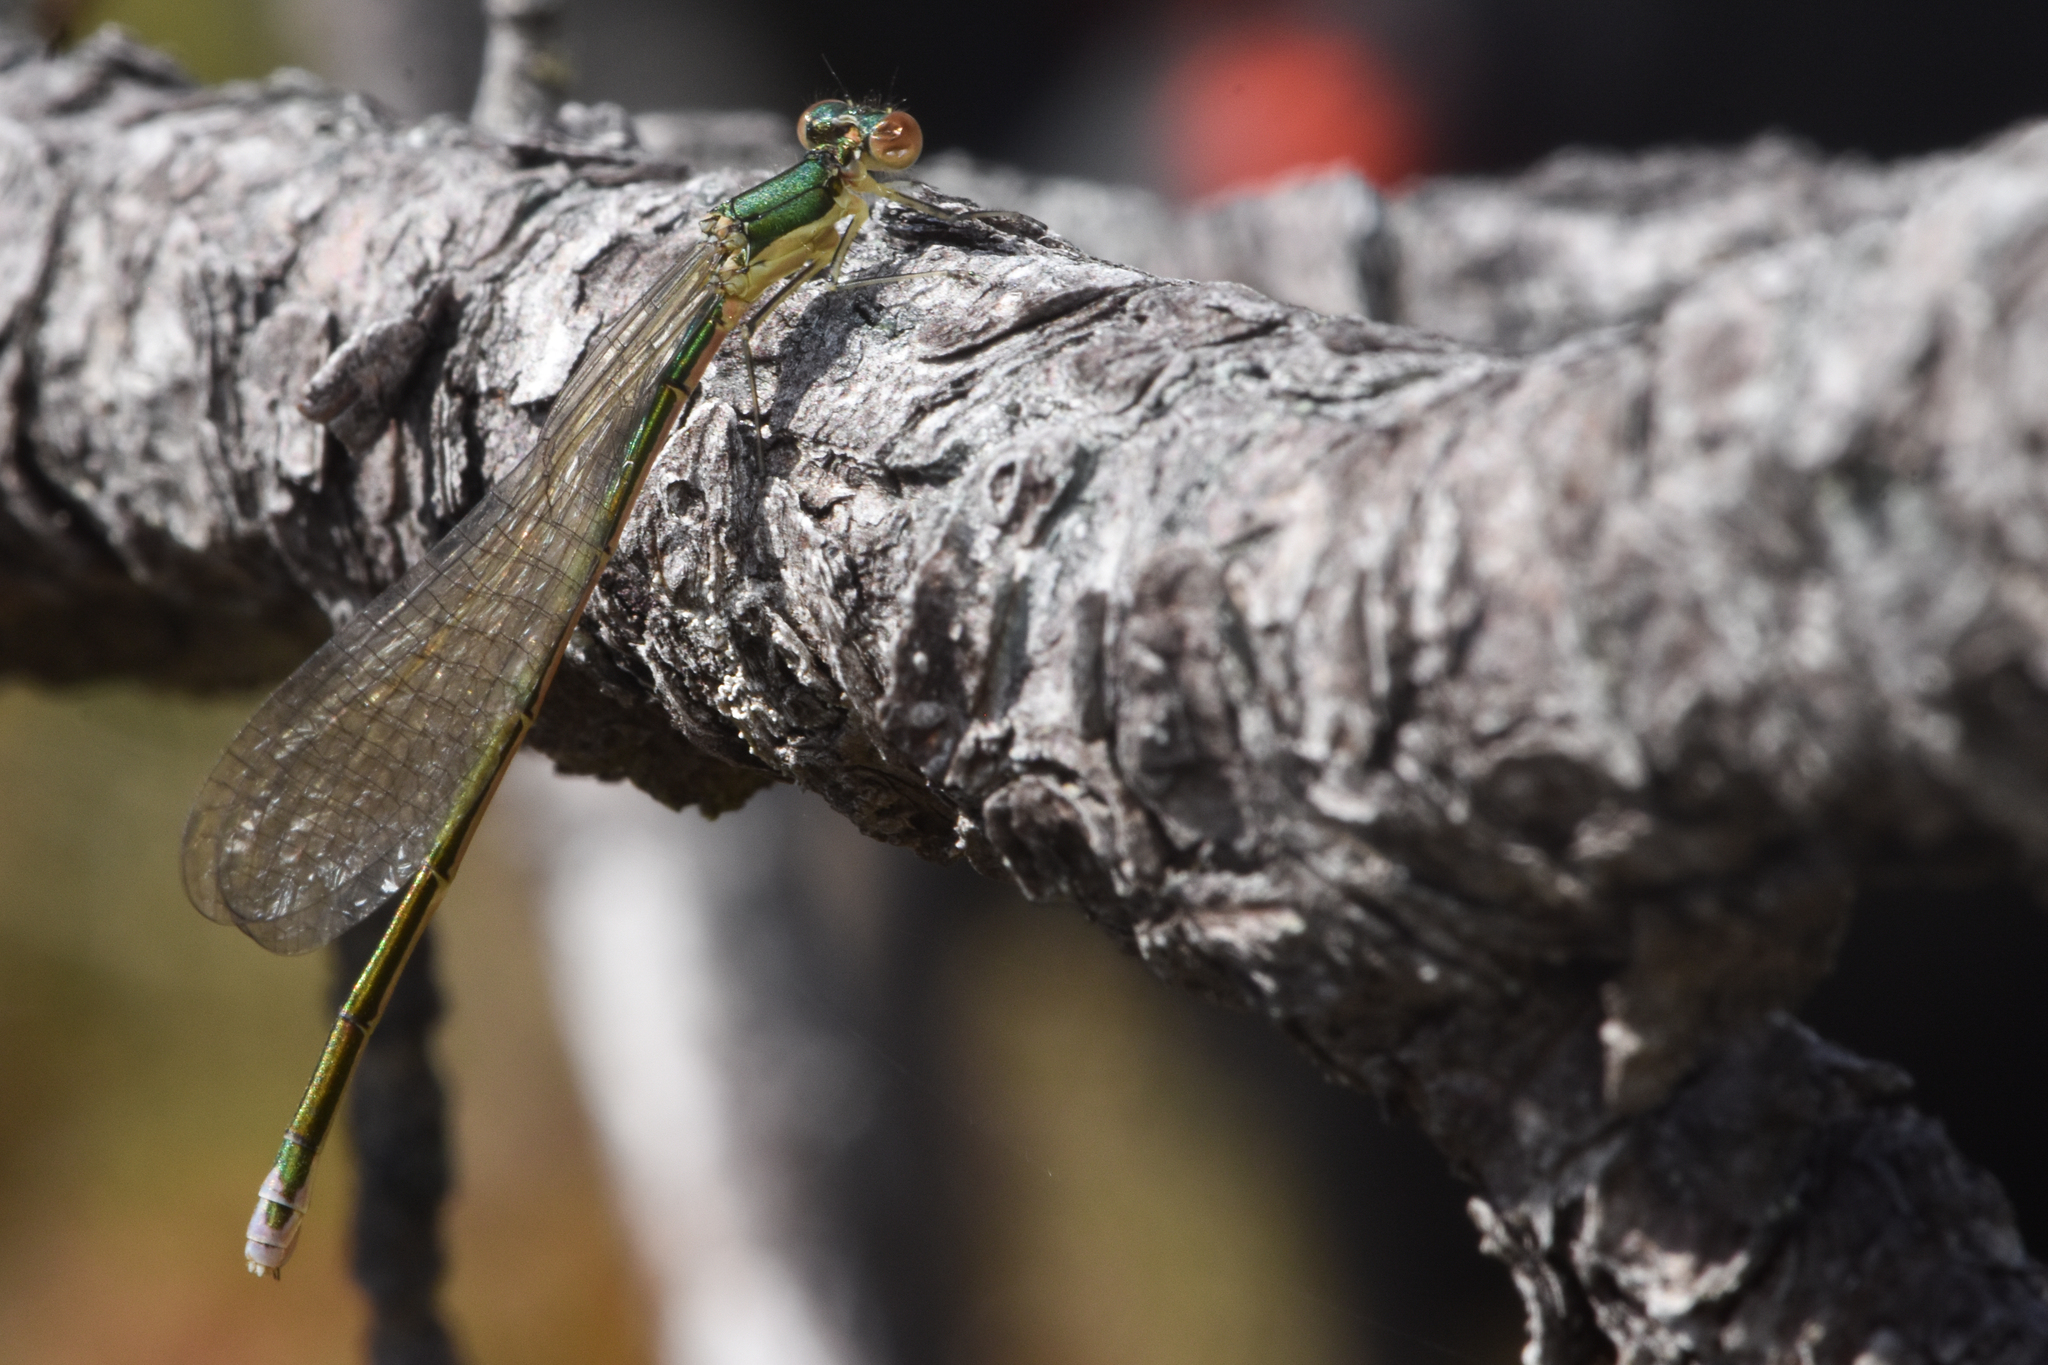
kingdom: Animalia
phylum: Arthropoda
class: Insecta
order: Odonata
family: Coenagrionidae
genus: Nehalennia
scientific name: Nehalennia irene
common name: Sedge sprite
